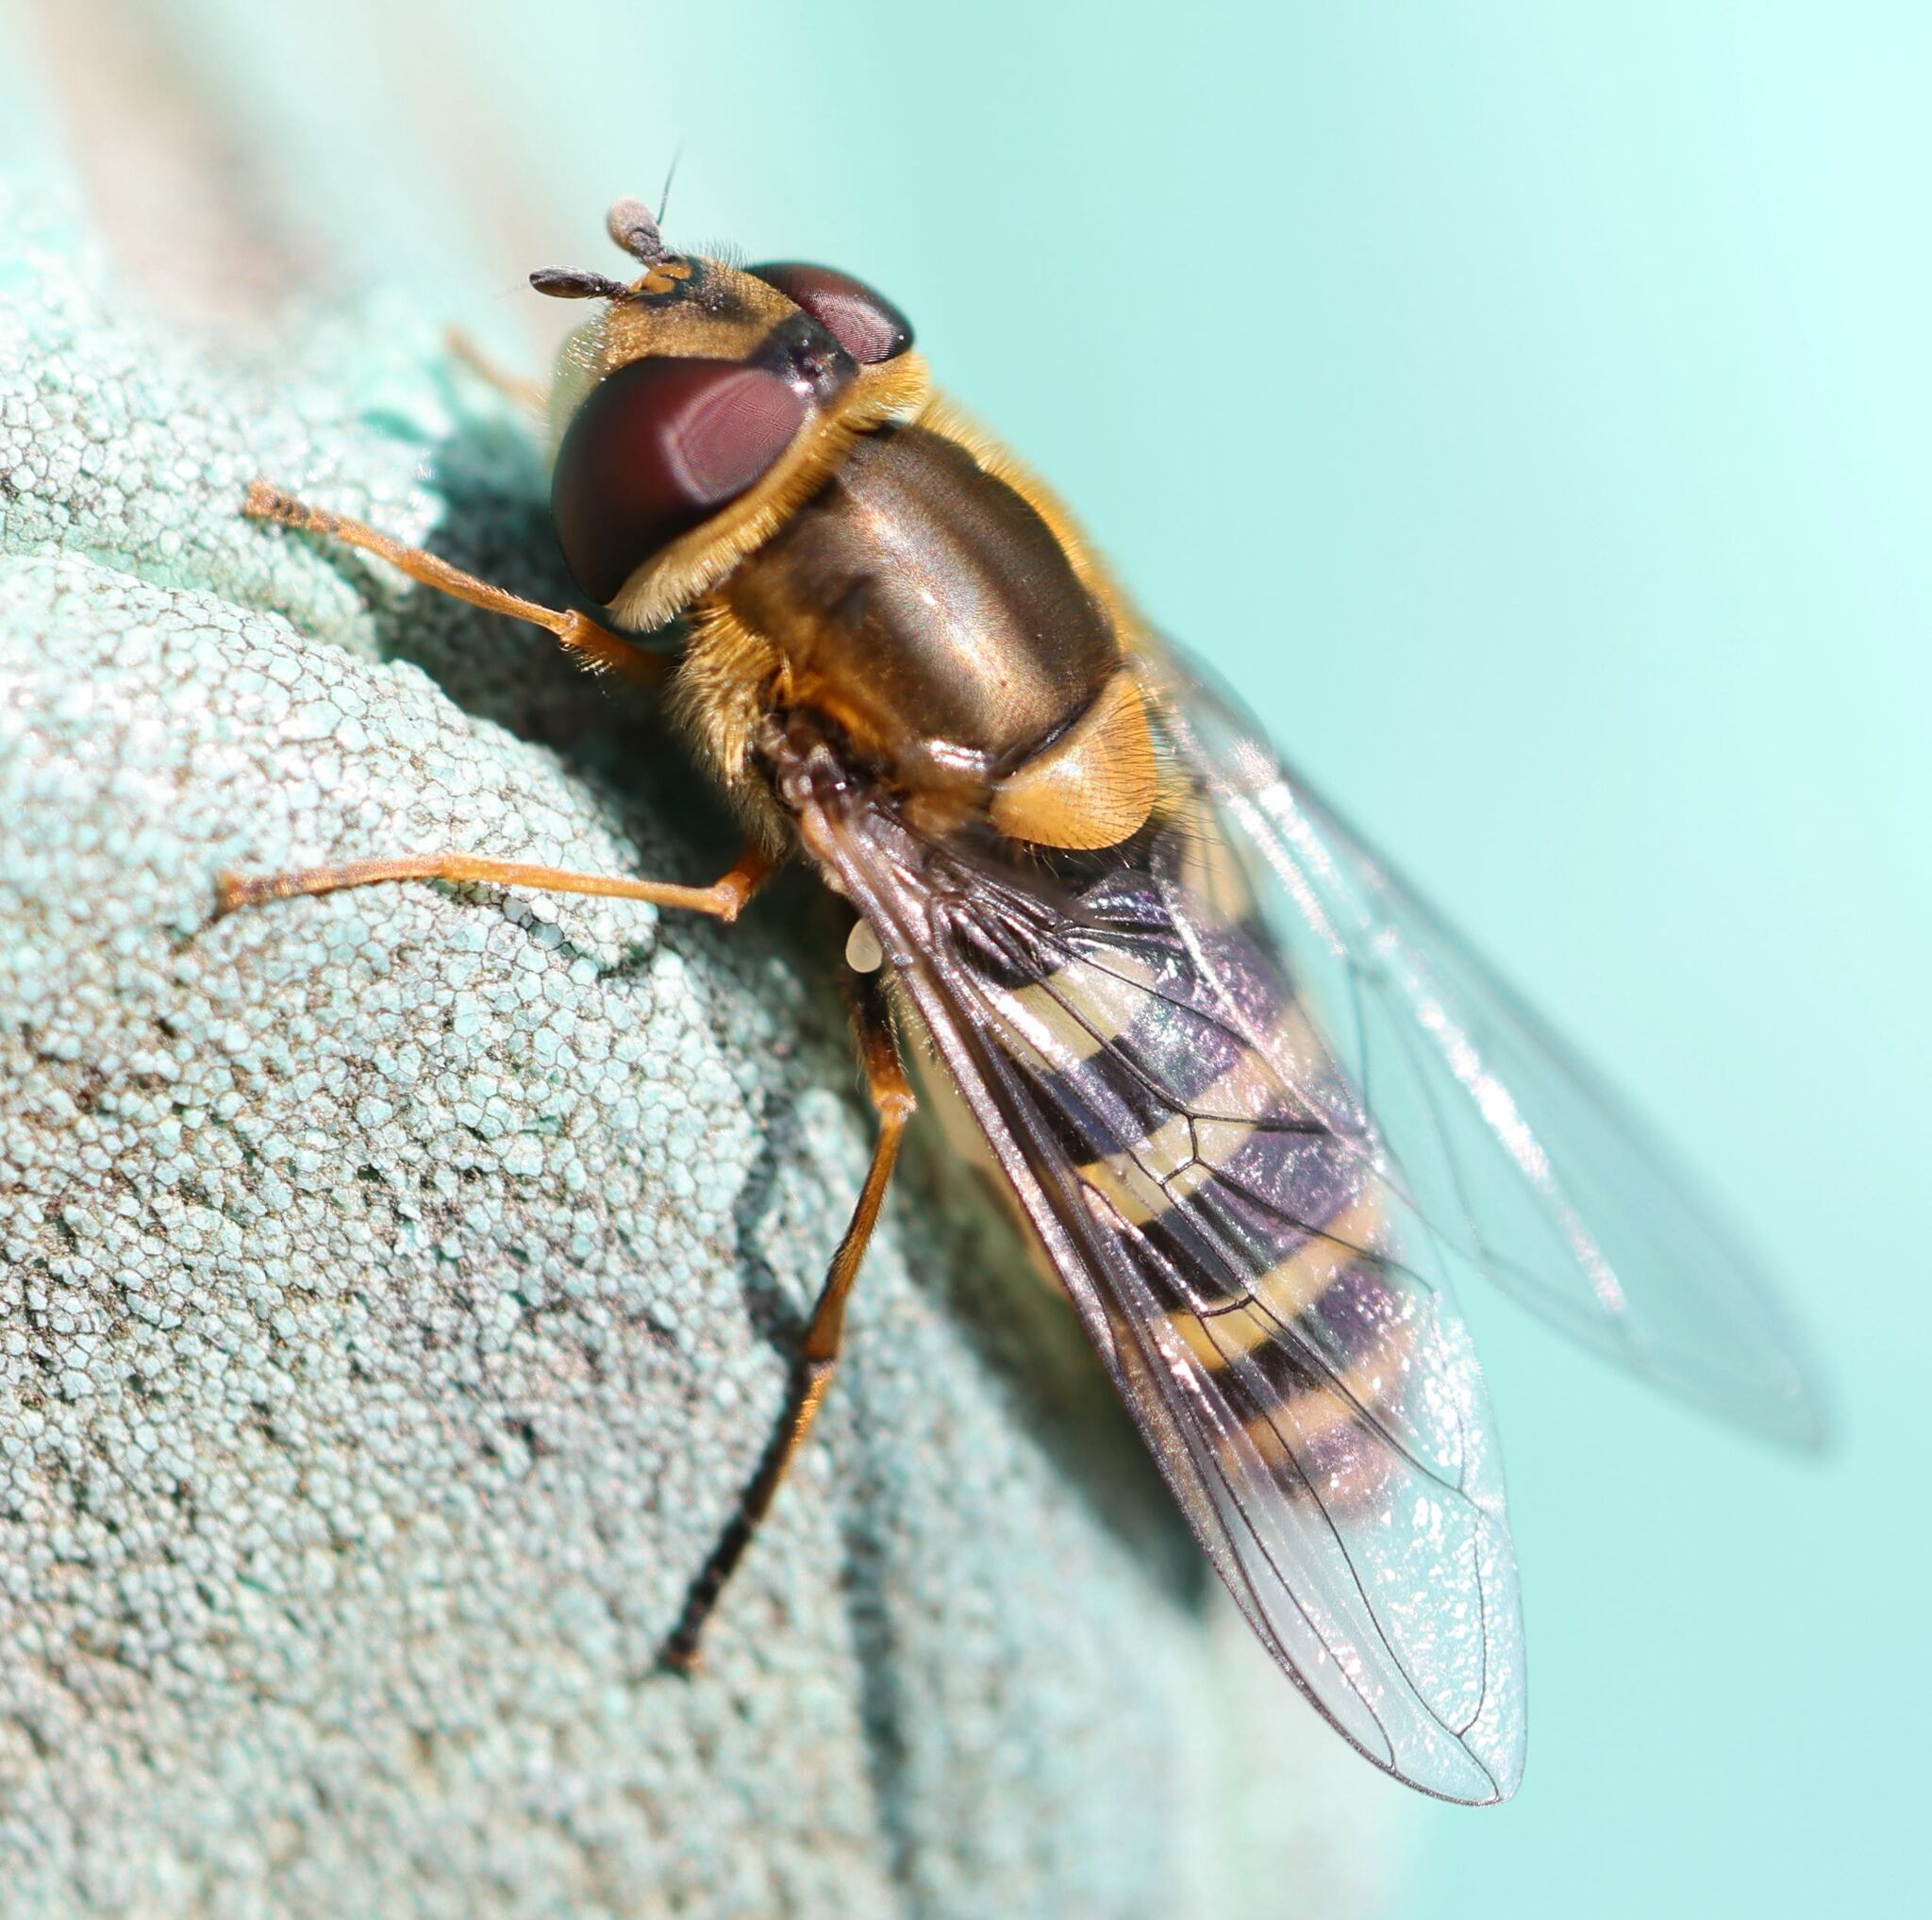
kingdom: Animalia
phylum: Arthropoda
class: Insecta
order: Diptera
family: Syrphidae
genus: Syrphus
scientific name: Syrphus vitripennis
